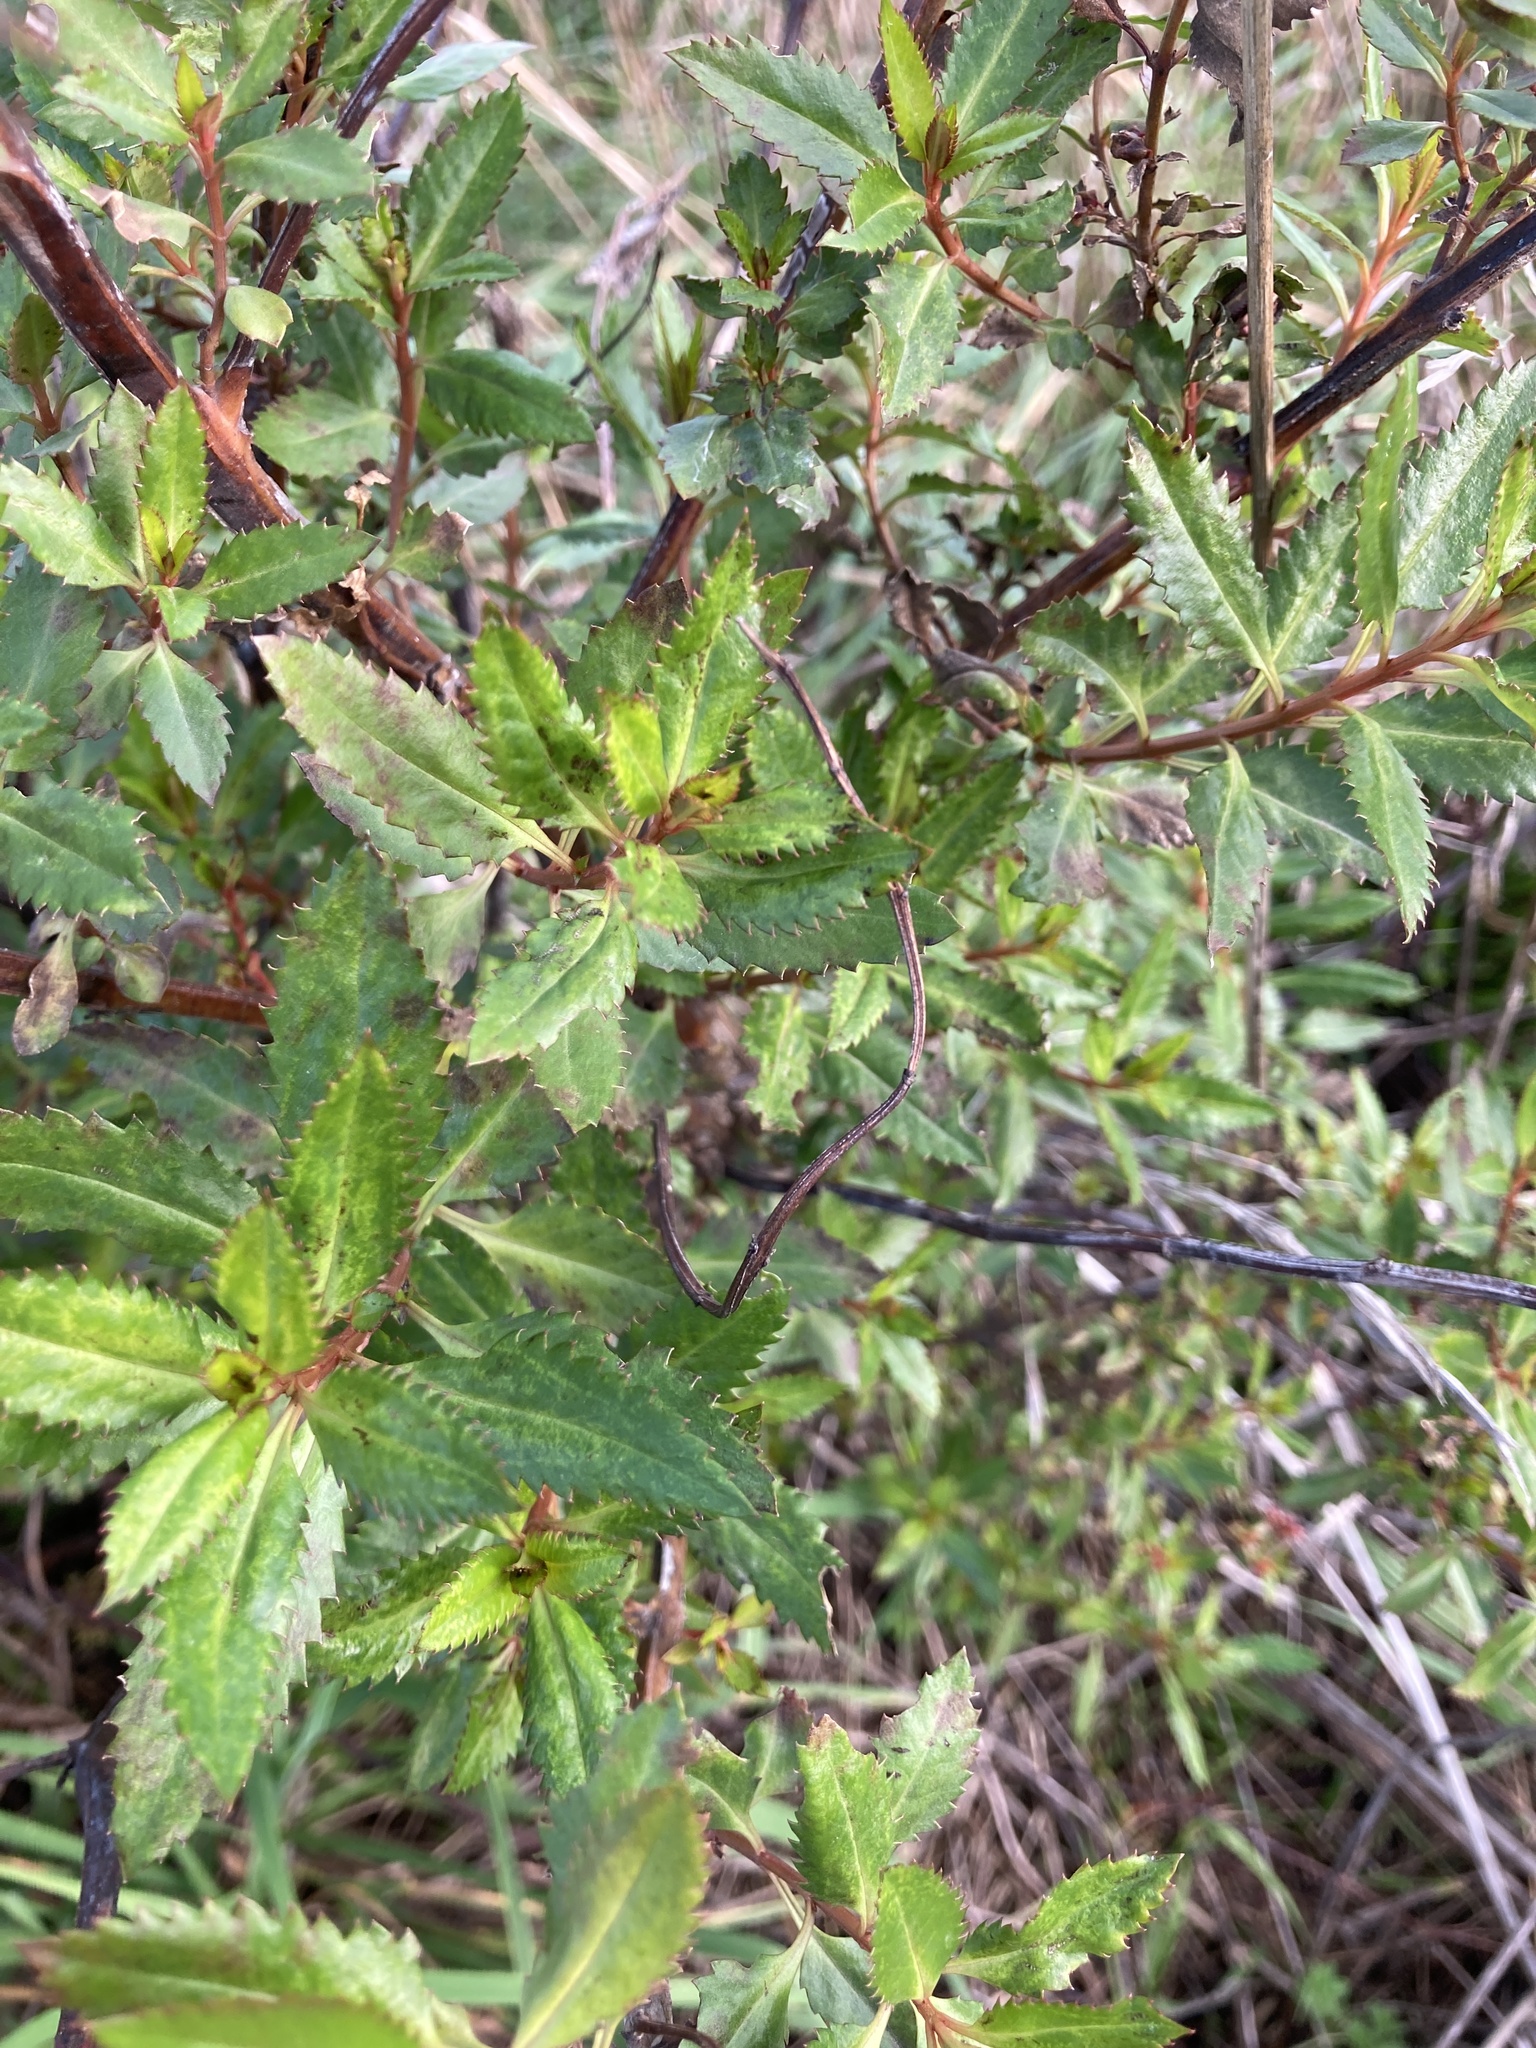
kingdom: Plantae
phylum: Tracheophyta
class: Magnoliopsida
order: Saxifragales
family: Haloragaceae
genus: Haloragis
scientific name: Haloragis erecta
